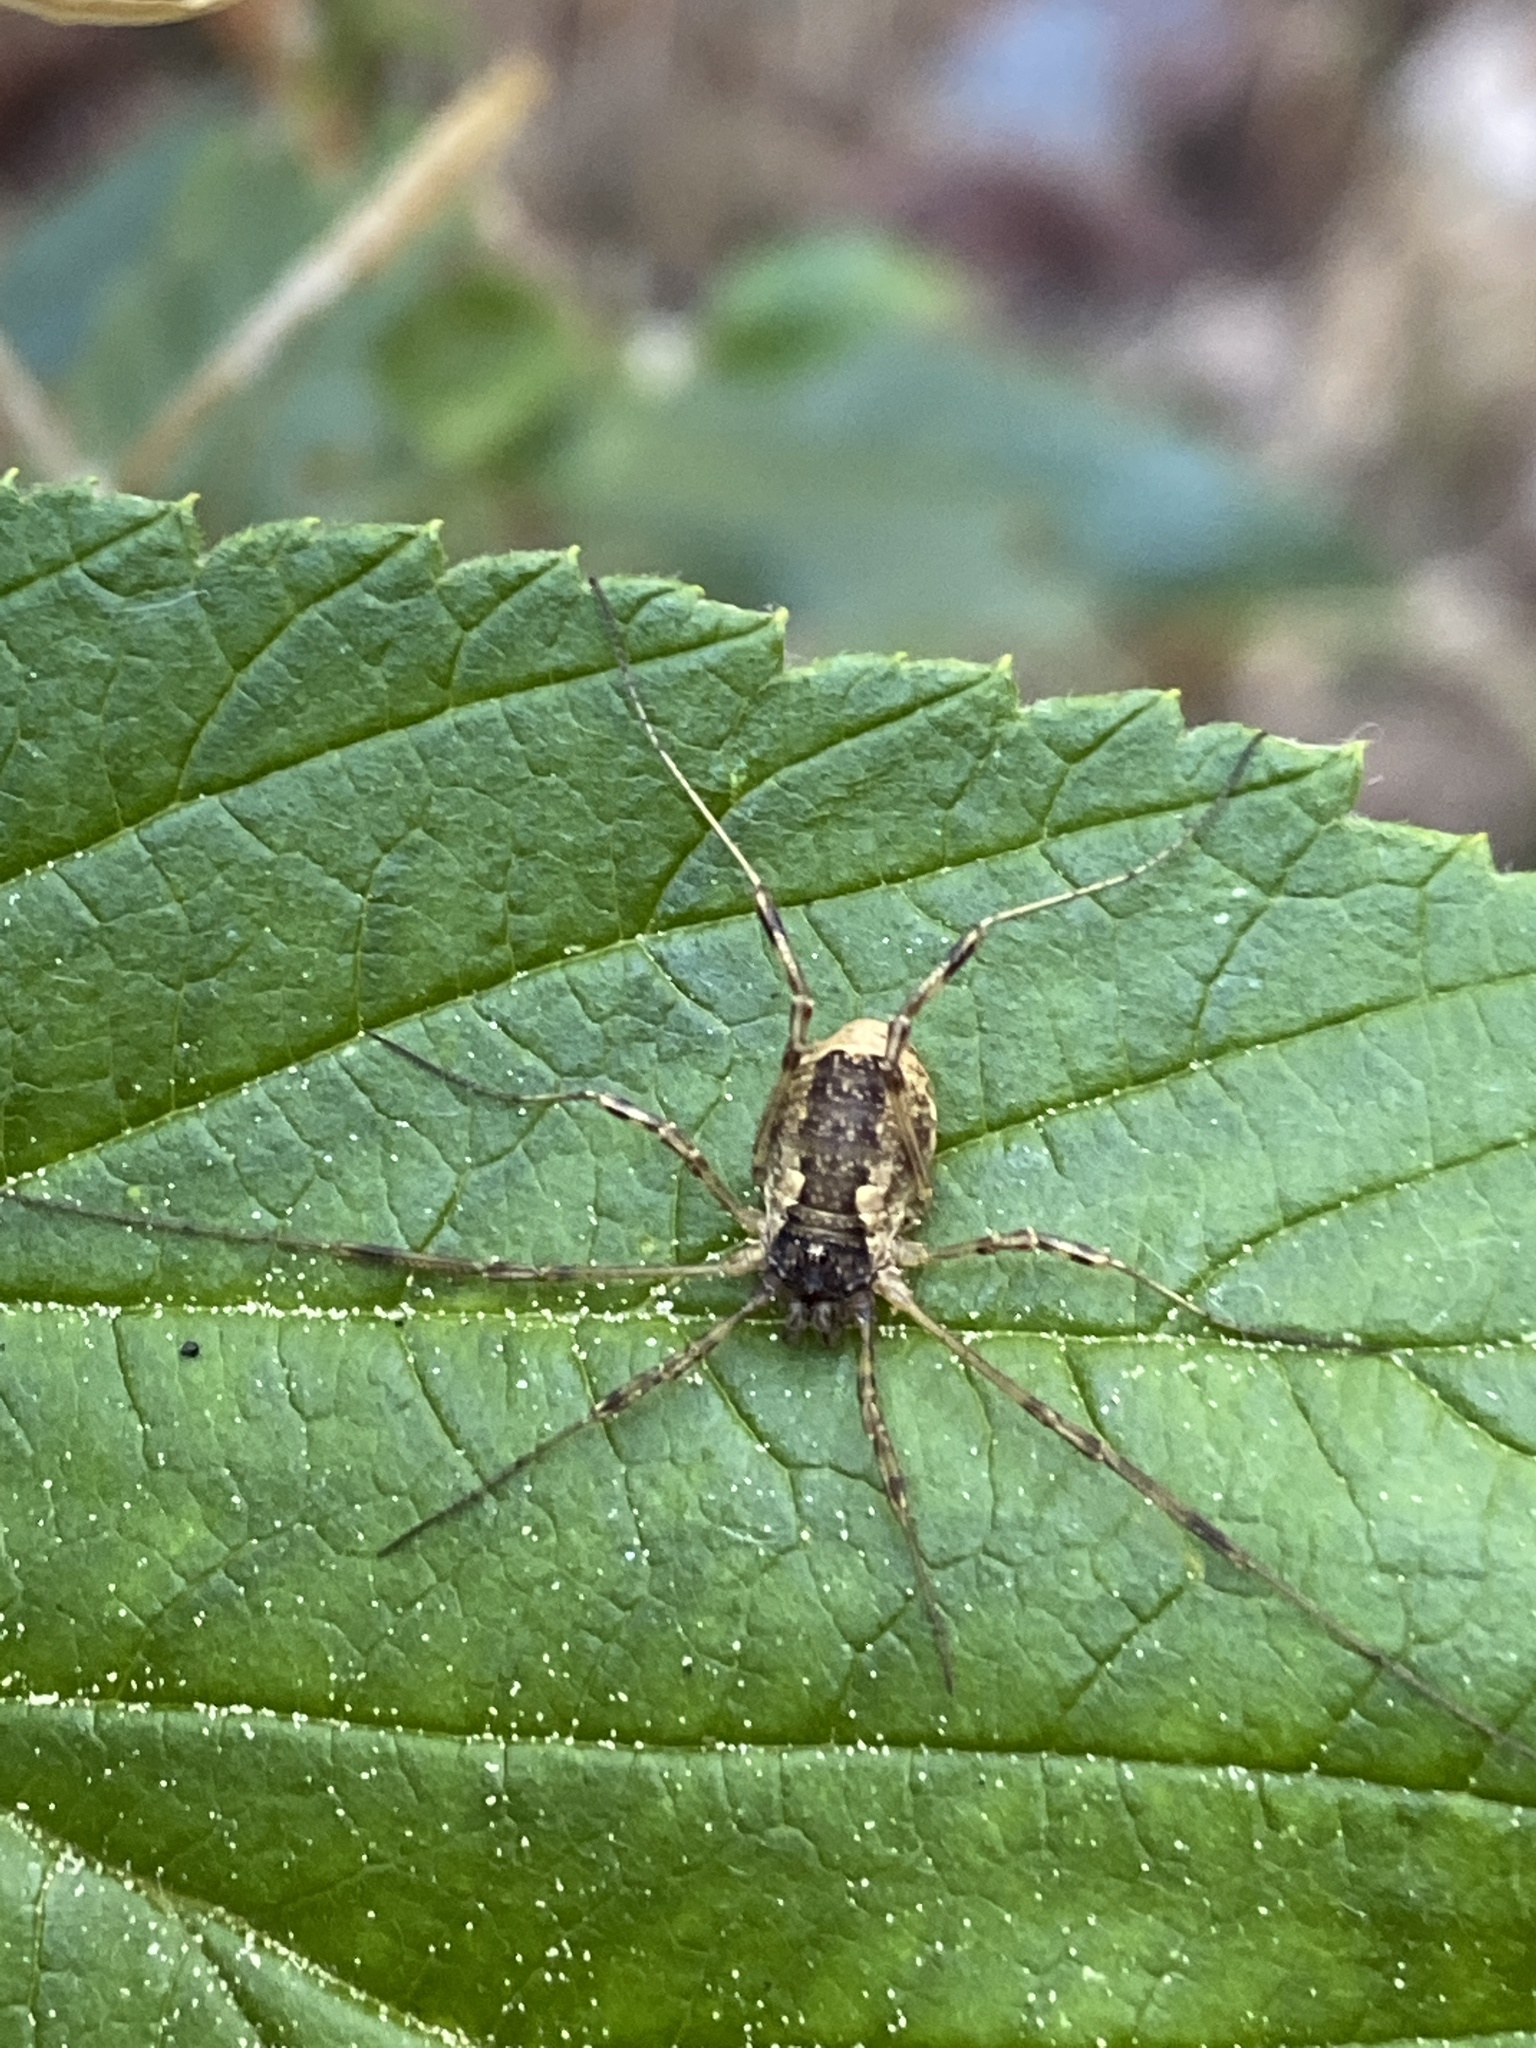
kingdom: Animalia
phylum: Arthropoda
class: Arachnida
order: Opiliones
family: Phalangiidae
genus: Oligolophus
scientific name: Oligolophus tridens
